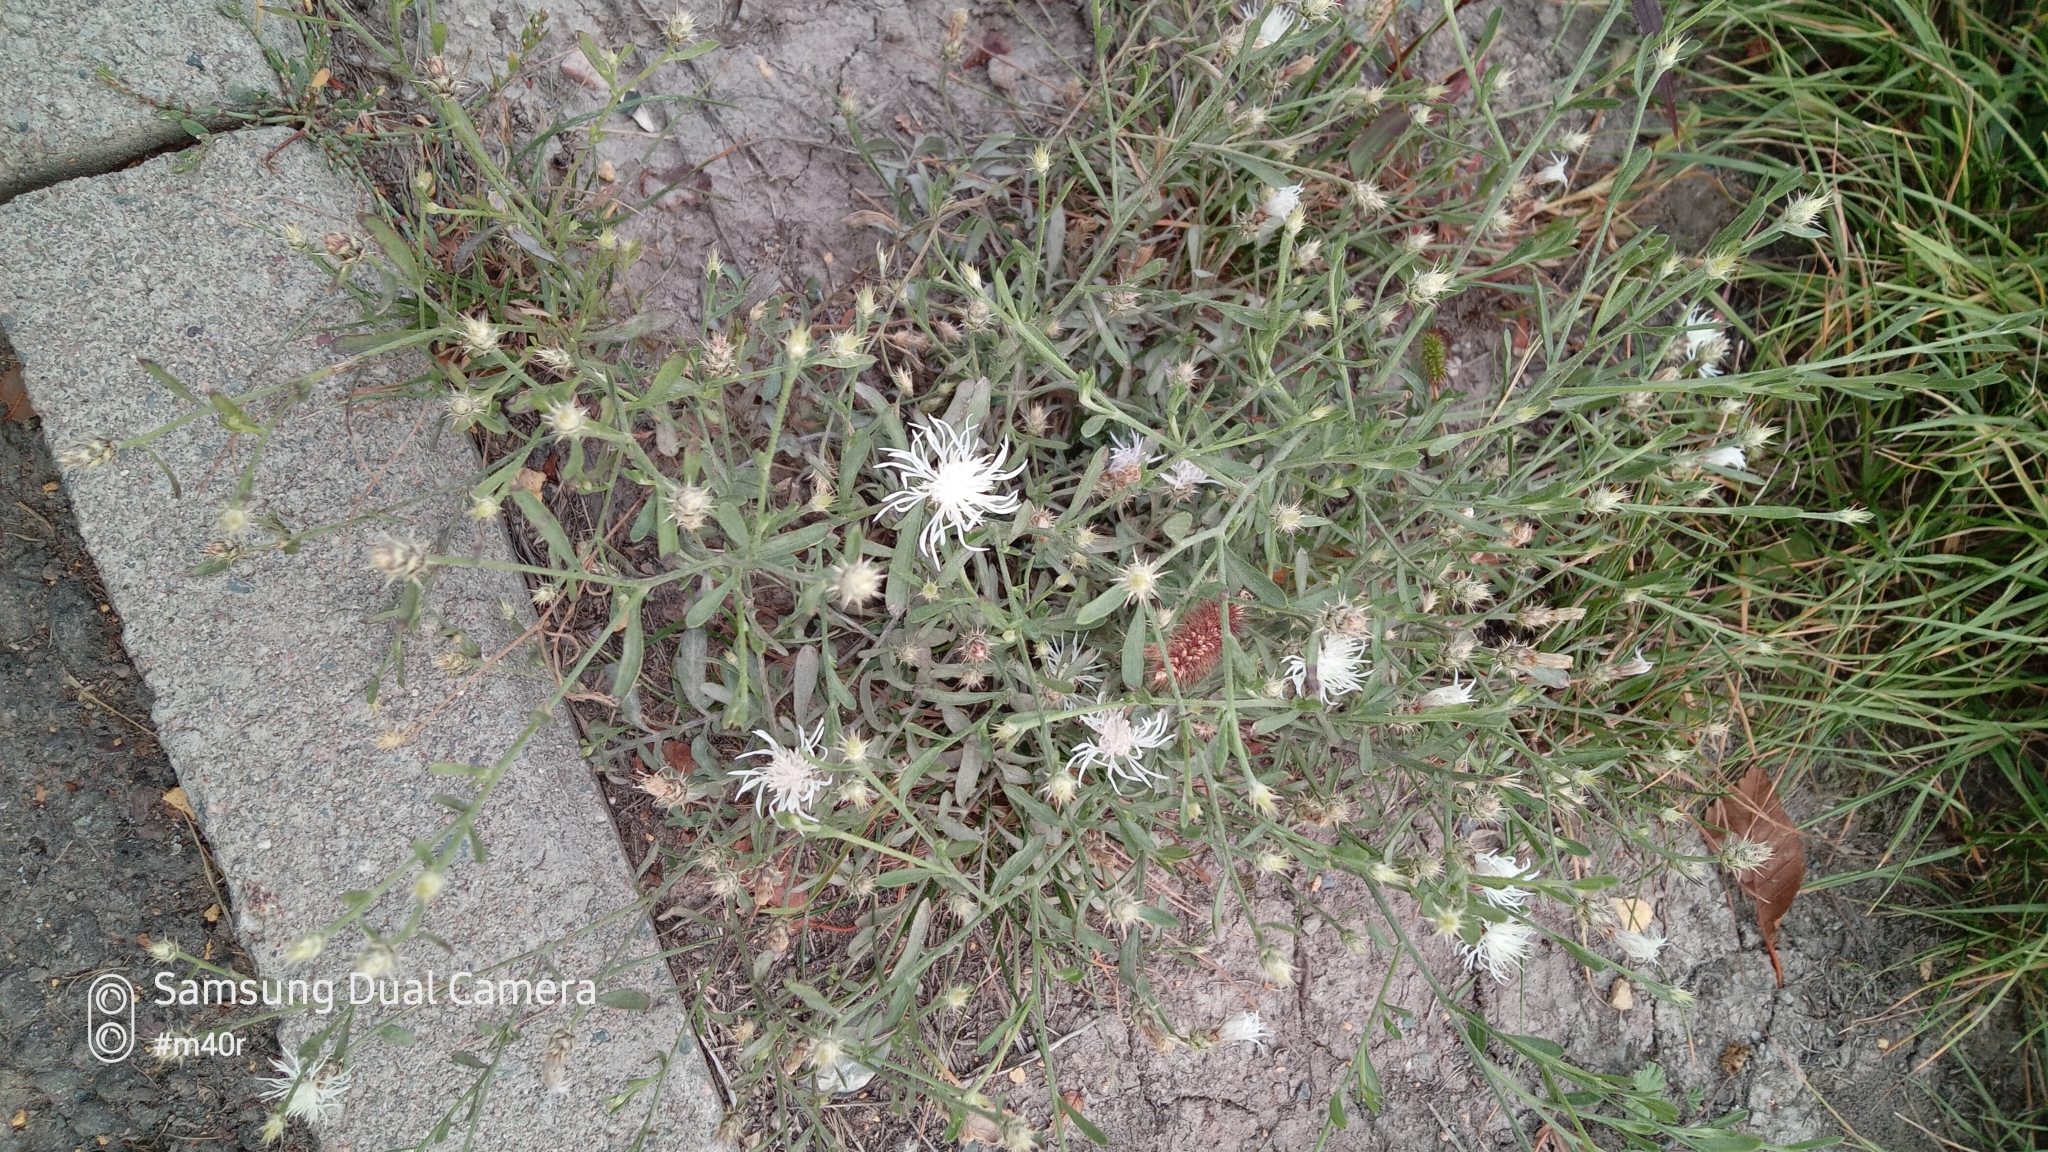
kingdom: Plantae
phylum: Tracheophyta
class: Magnoliopsida
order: Asterales
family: Asteraceae
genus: Centaurea
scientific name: Centaurea diffusa
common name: Diffuse knapweed
